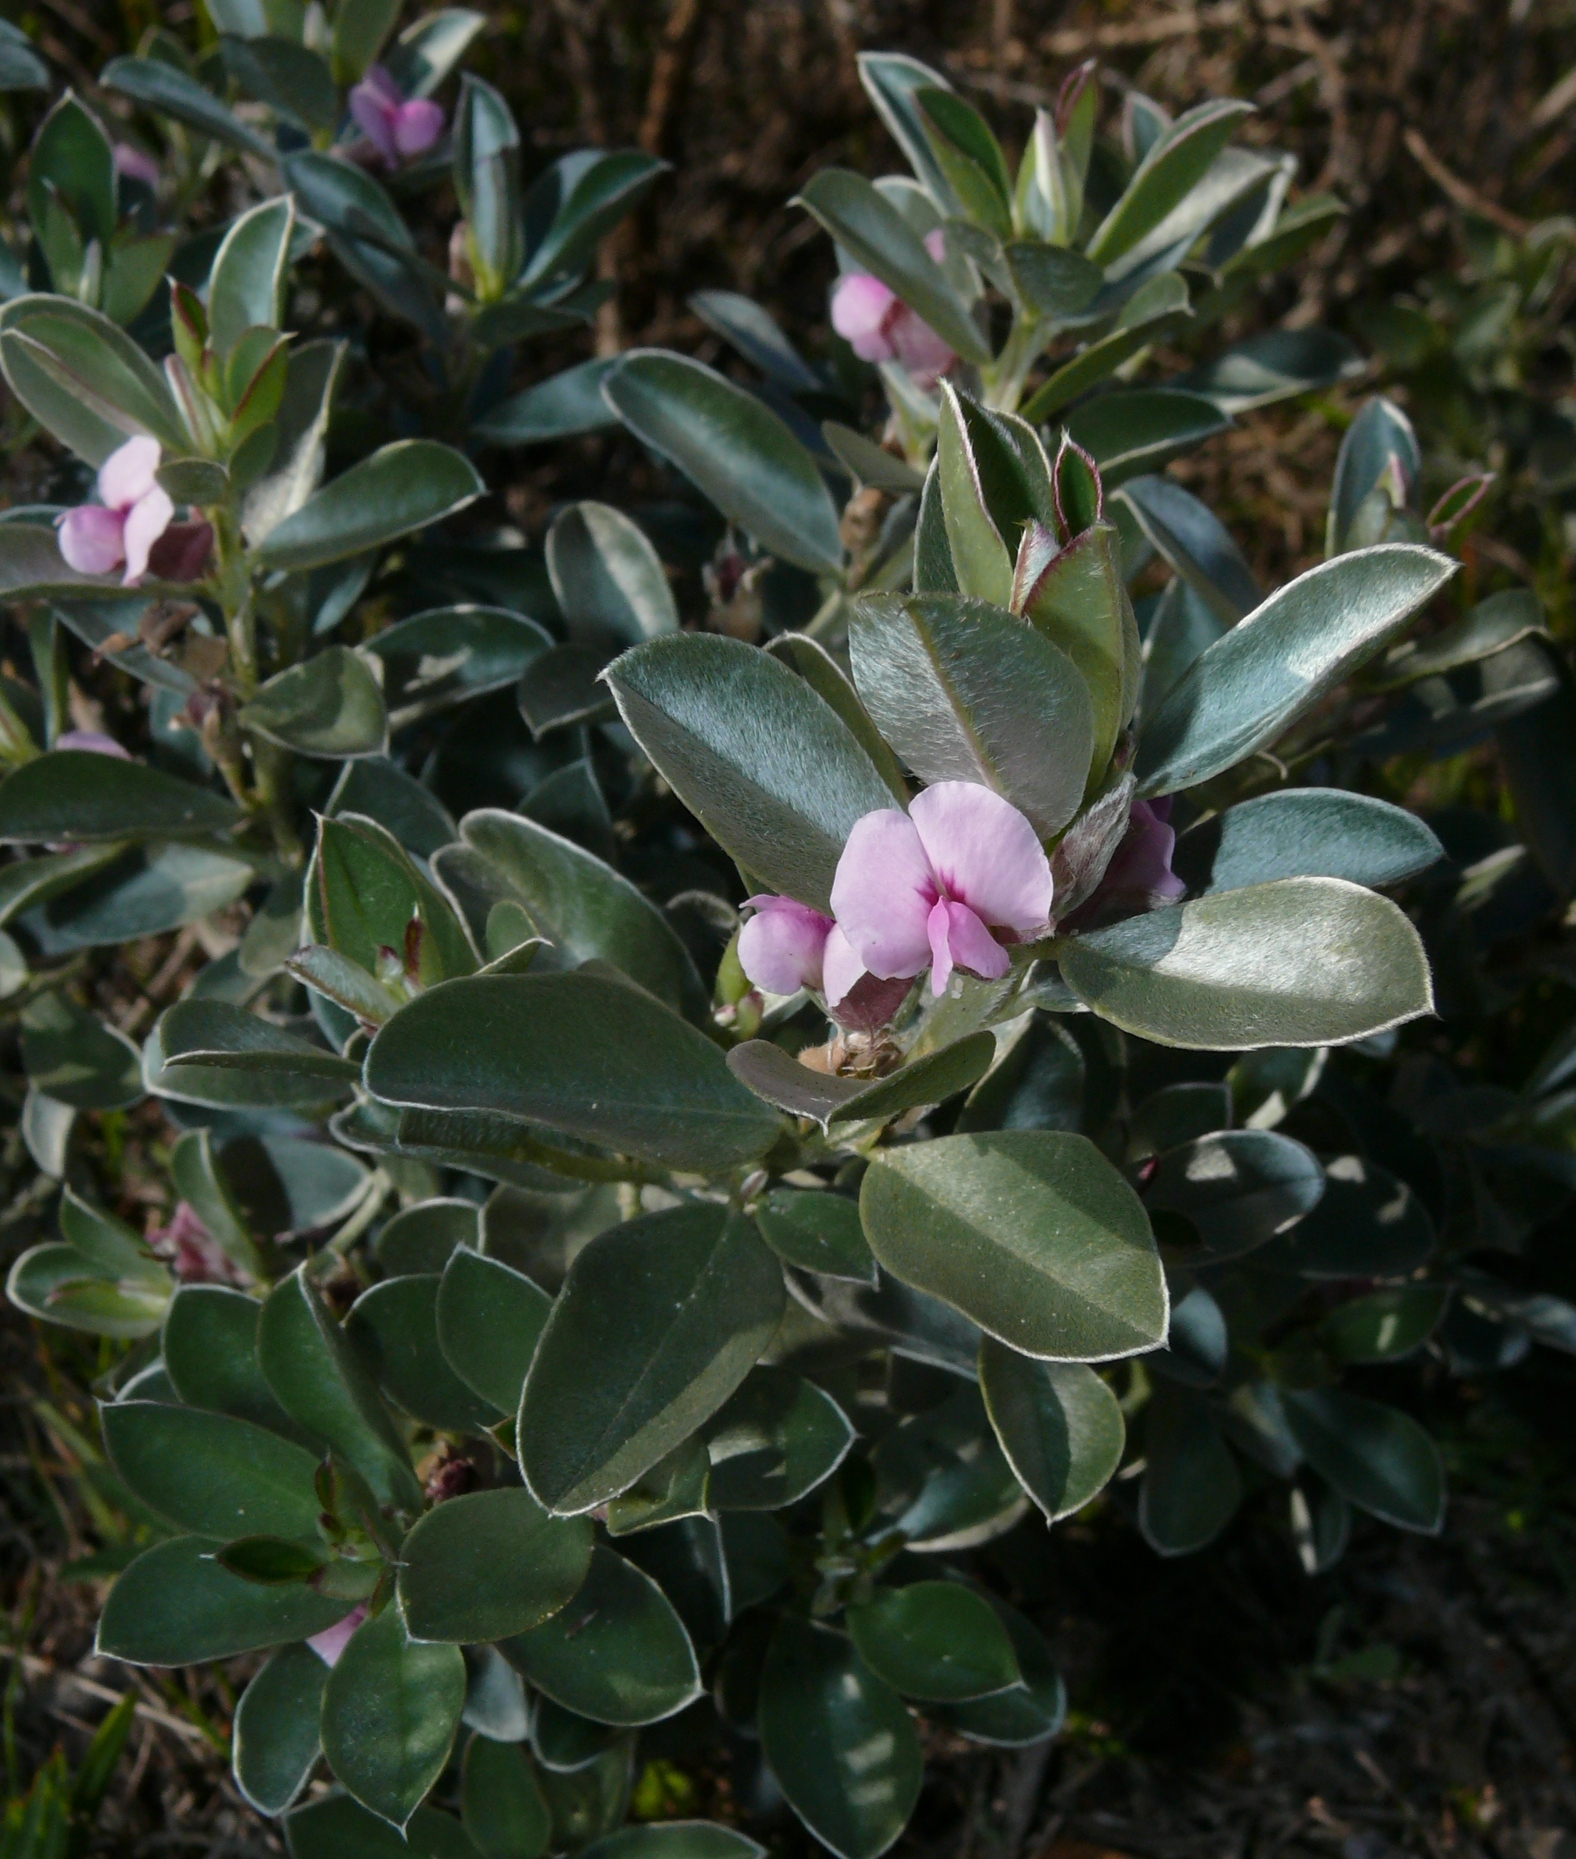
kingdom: Plantae
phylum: Tracheophyta
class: Magnoliopsida
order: Fabales
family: Fabaceae
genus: Podalyria
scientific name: Podalyria sericea
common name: Silver podalyria
